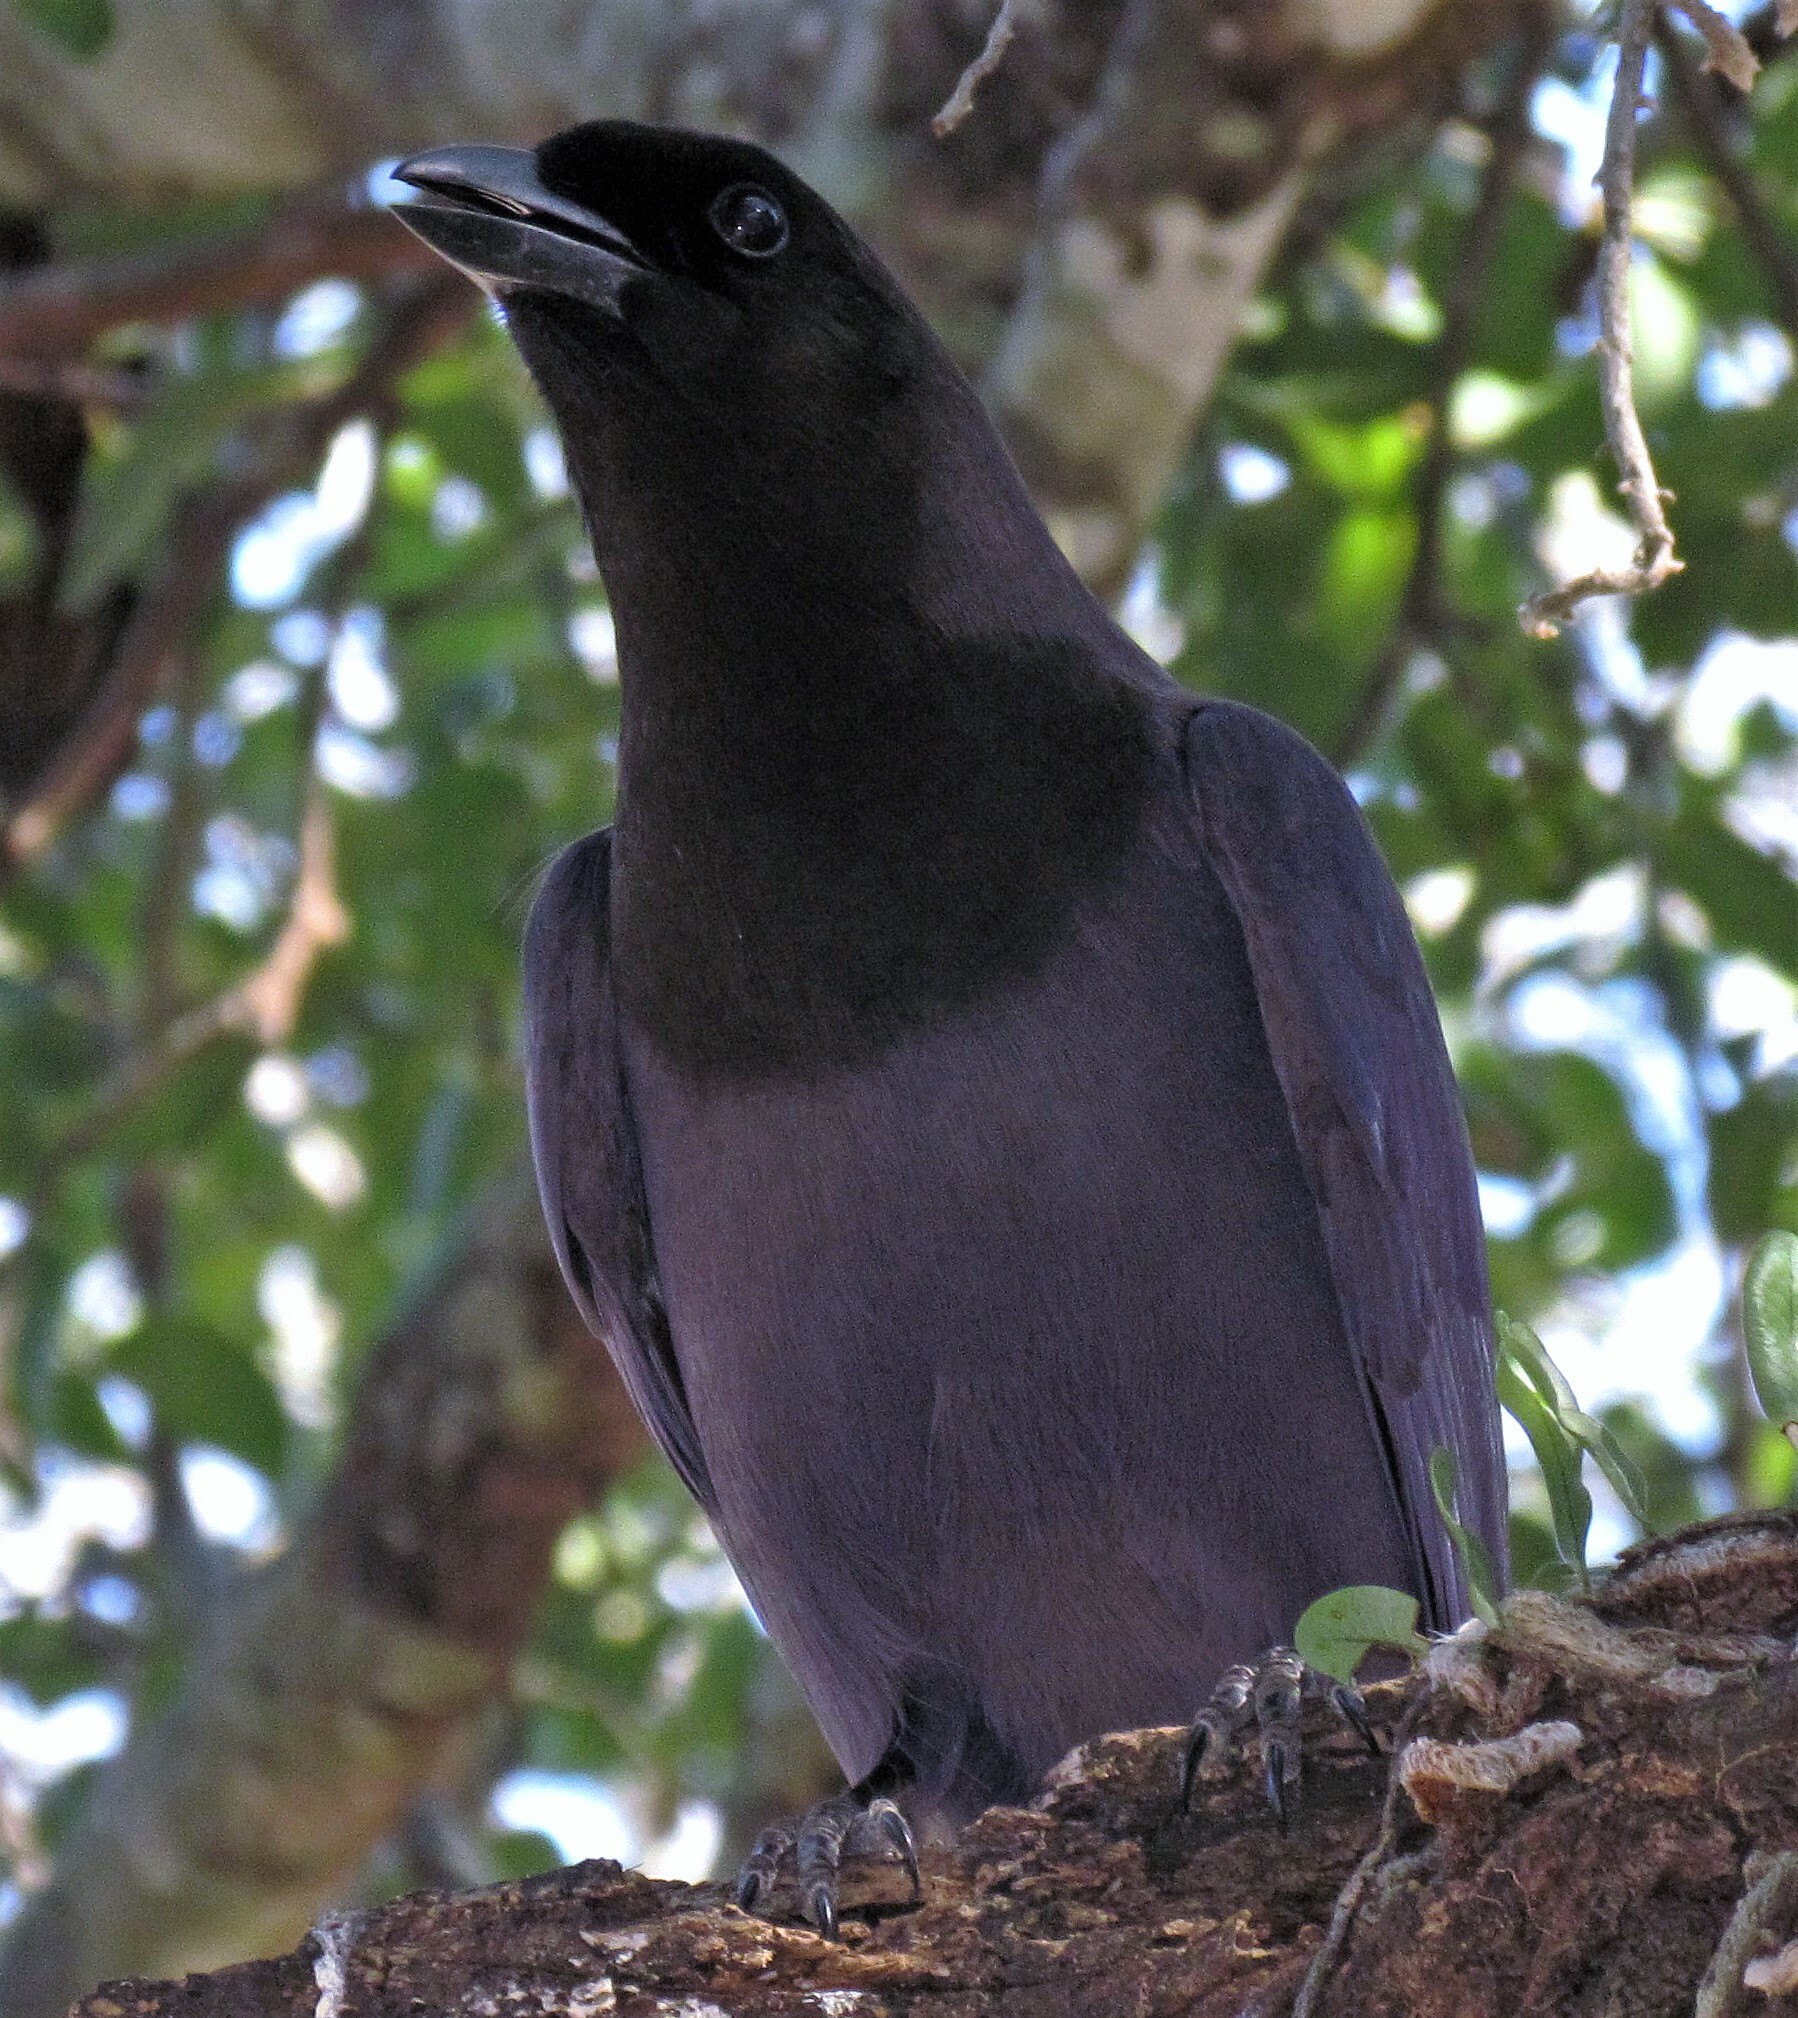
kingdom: Animalia
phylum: Chordata
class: Aves
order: Passeriformes
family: Corvidae
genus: Cyanocorax
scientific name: Cyanocorax cyanomelas
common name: Purplish jay
